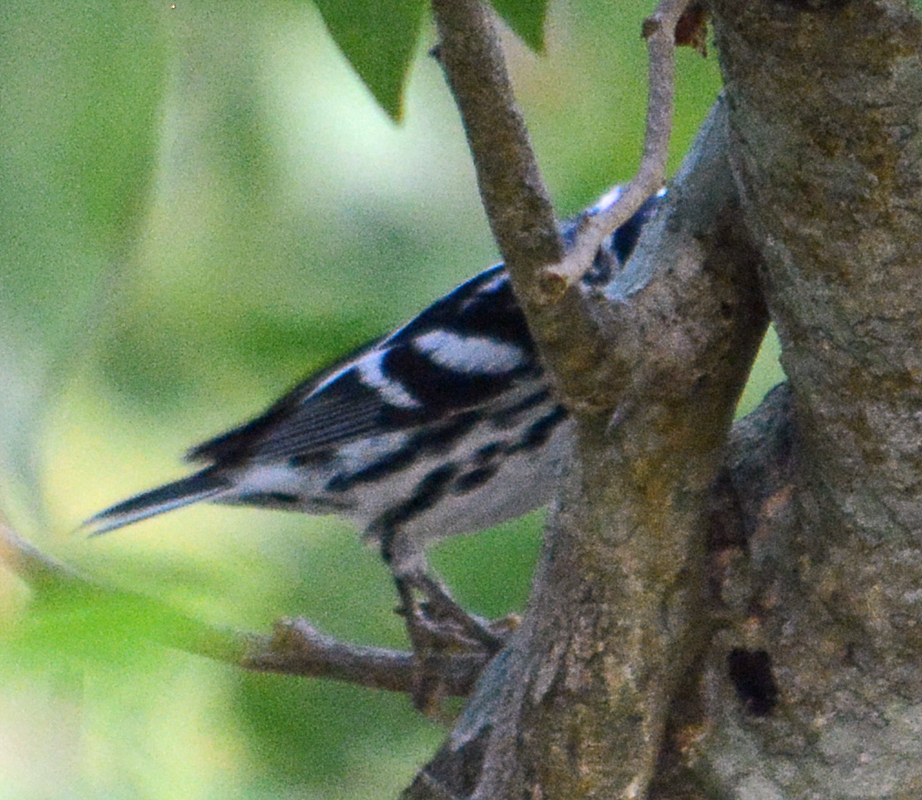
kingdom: Animalia
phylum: Chordata
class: Aves
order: Passeriformes
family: Parulidae
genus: Mniotilta
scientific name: Mniotilta varia
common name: Black-and-white warbler
